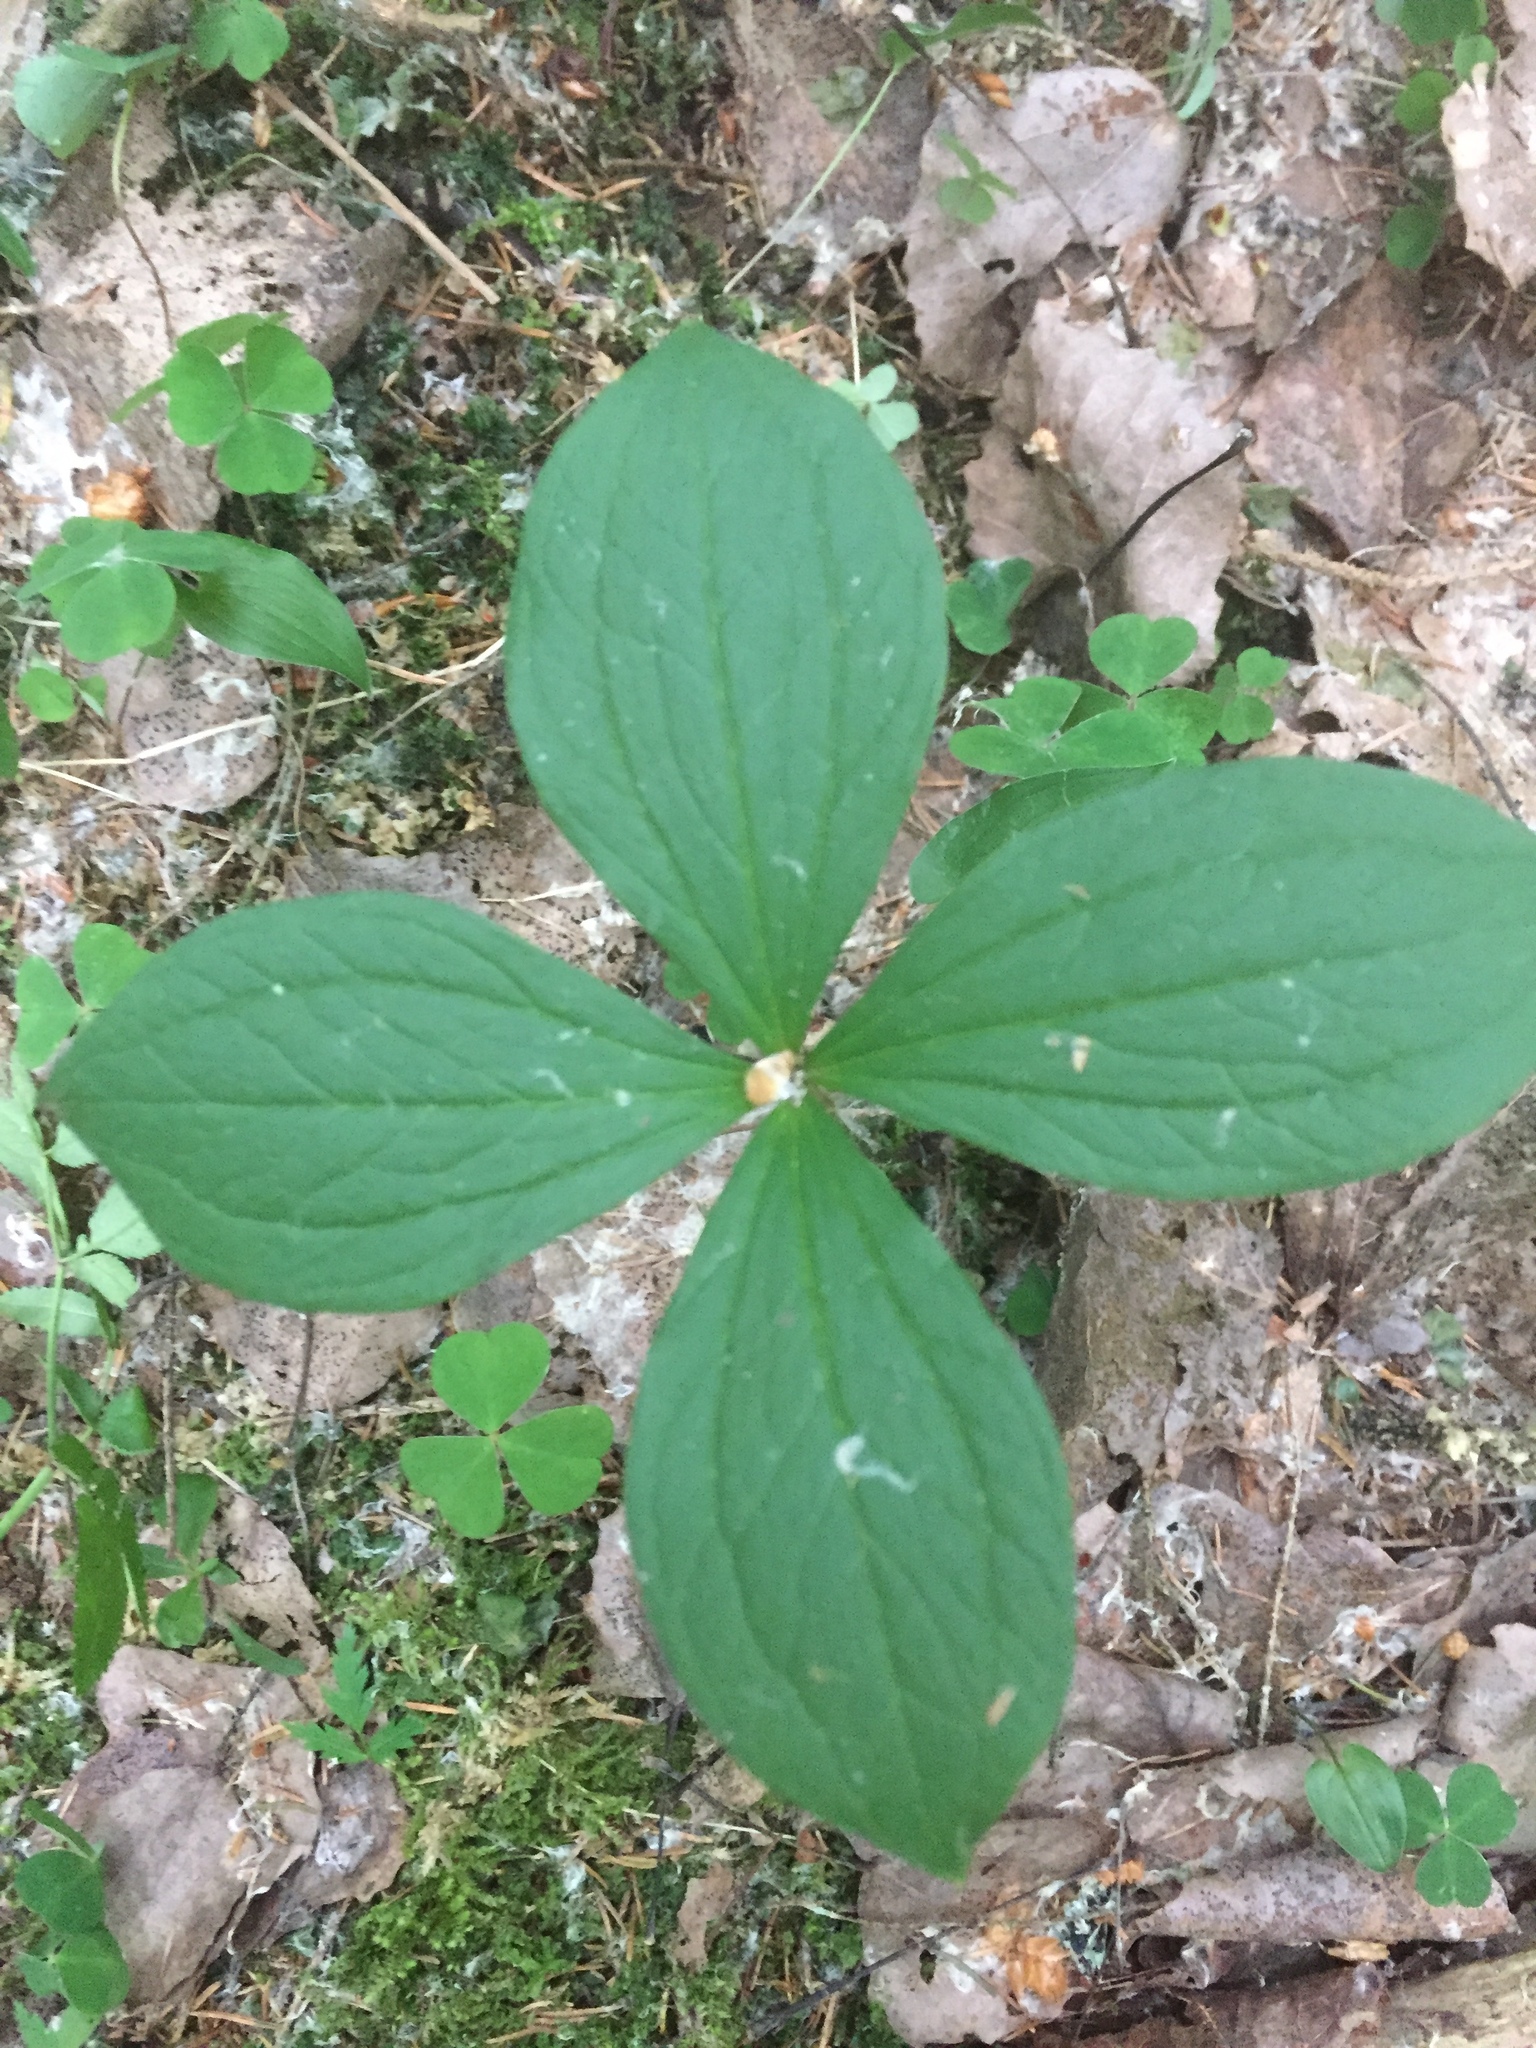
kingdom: Plantae
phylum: Tracheophyta
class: Liliopsida
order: Liliales
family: Melanthiaceae
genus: Paris
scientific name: Paris quadrifolia
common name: Herb-paris
